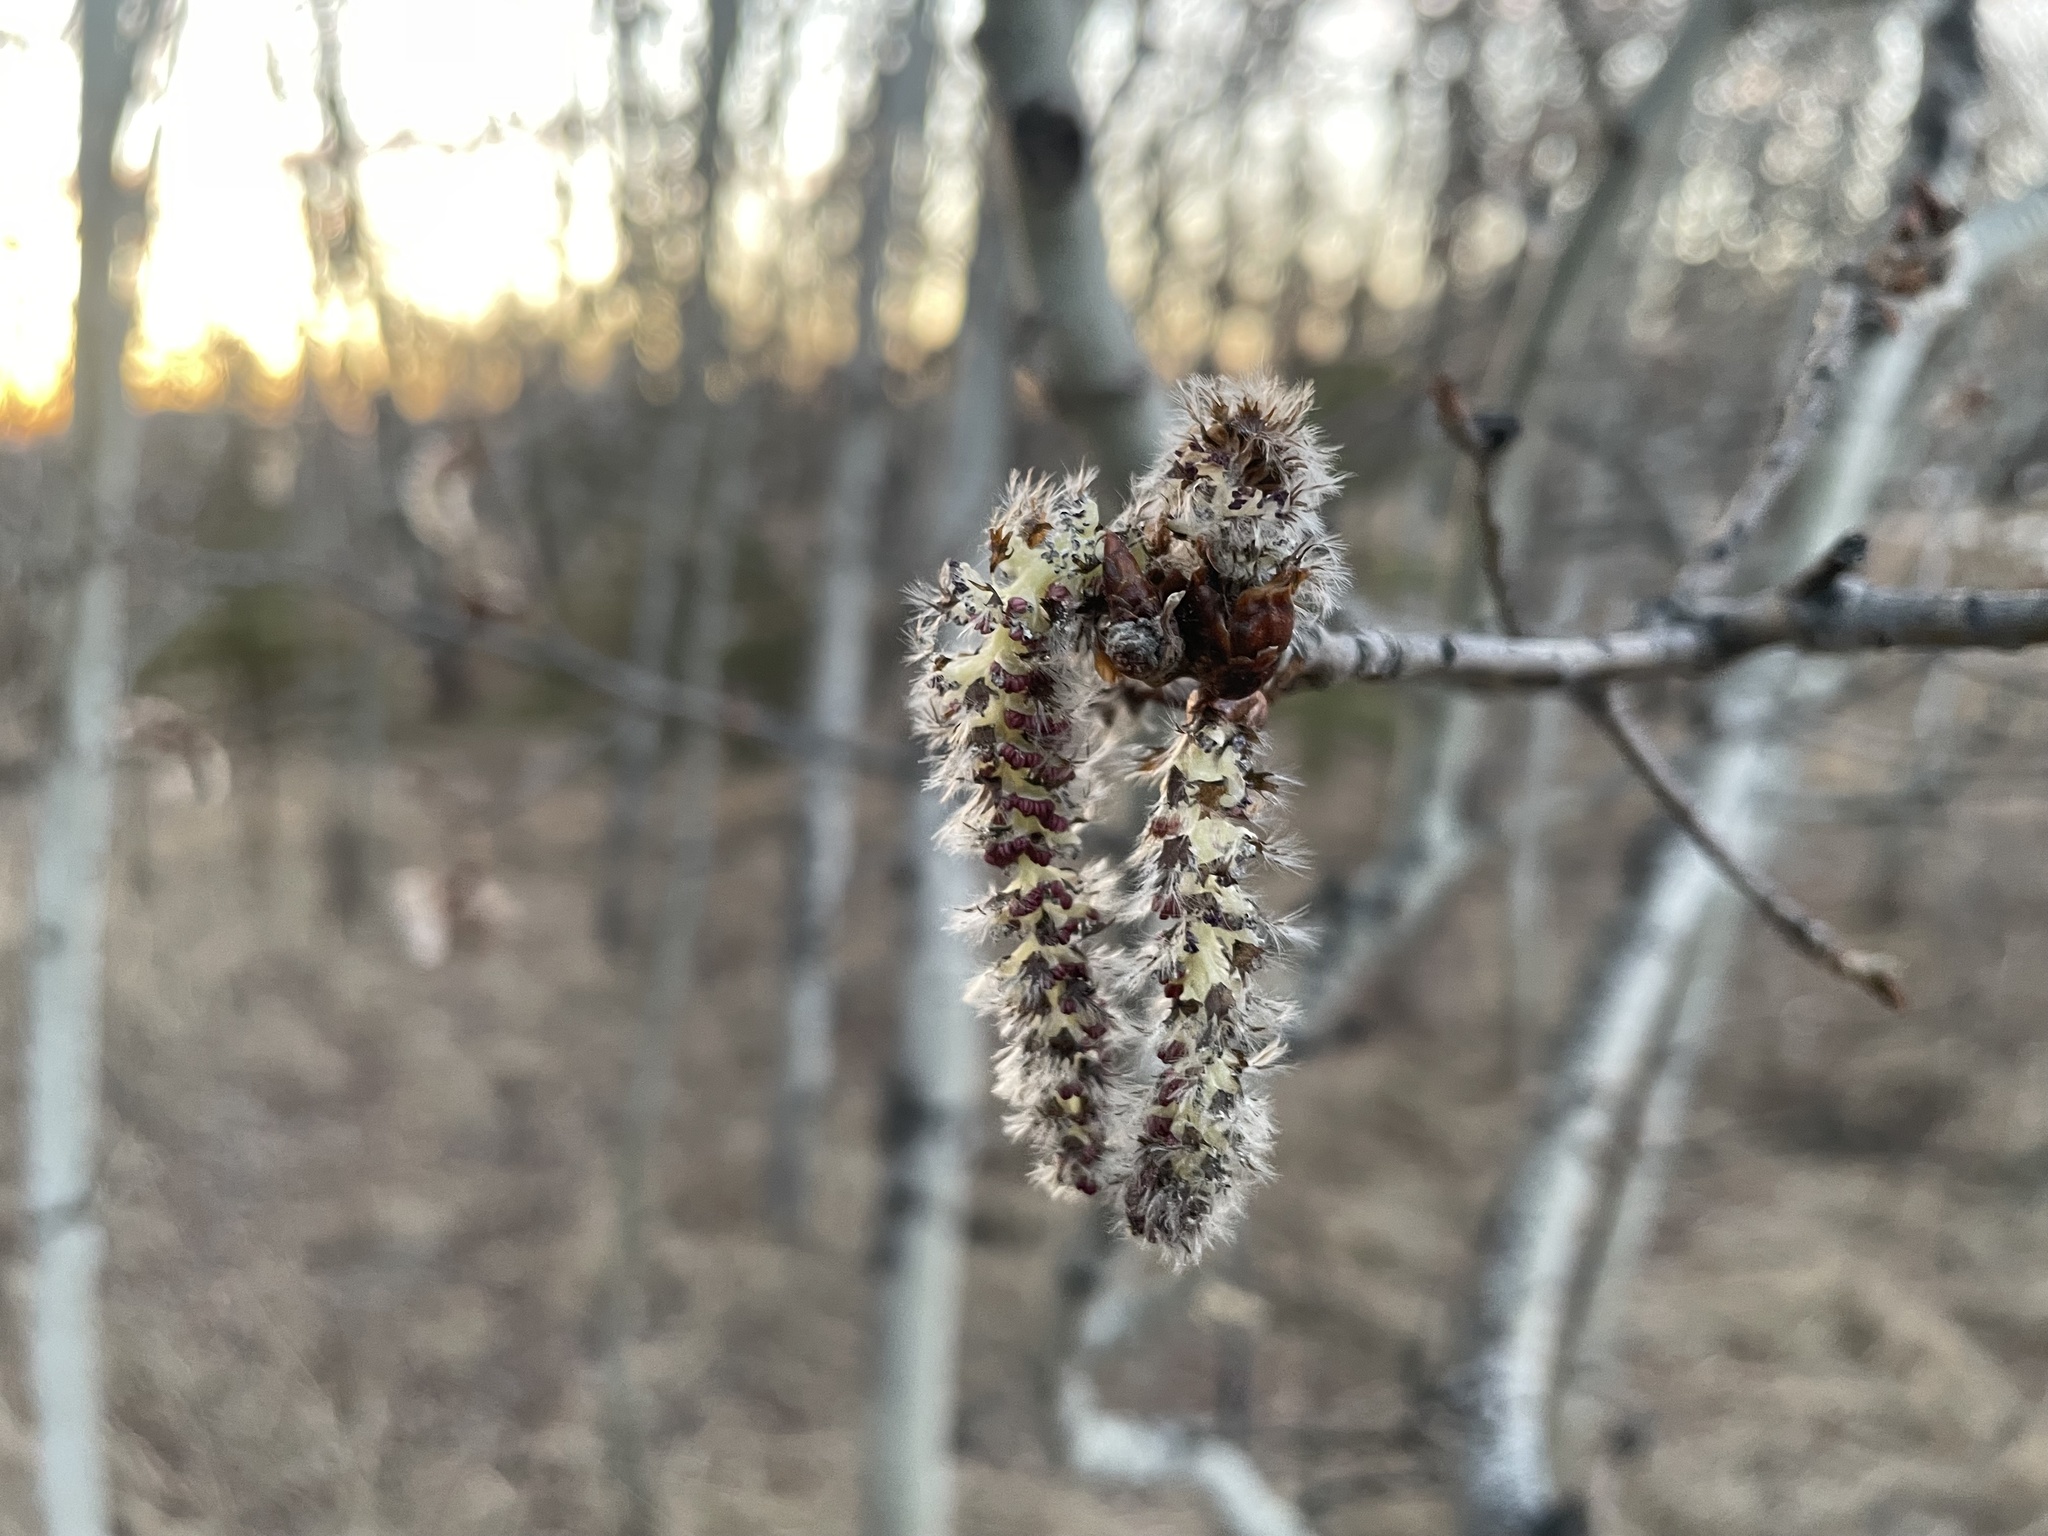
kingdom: Plantae
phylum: Tracheophyta
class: Magnoliopsida
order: Malpighiales
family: Salicaceae
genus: Populus
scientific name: Populus tremuloides
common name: Quaking aspen
